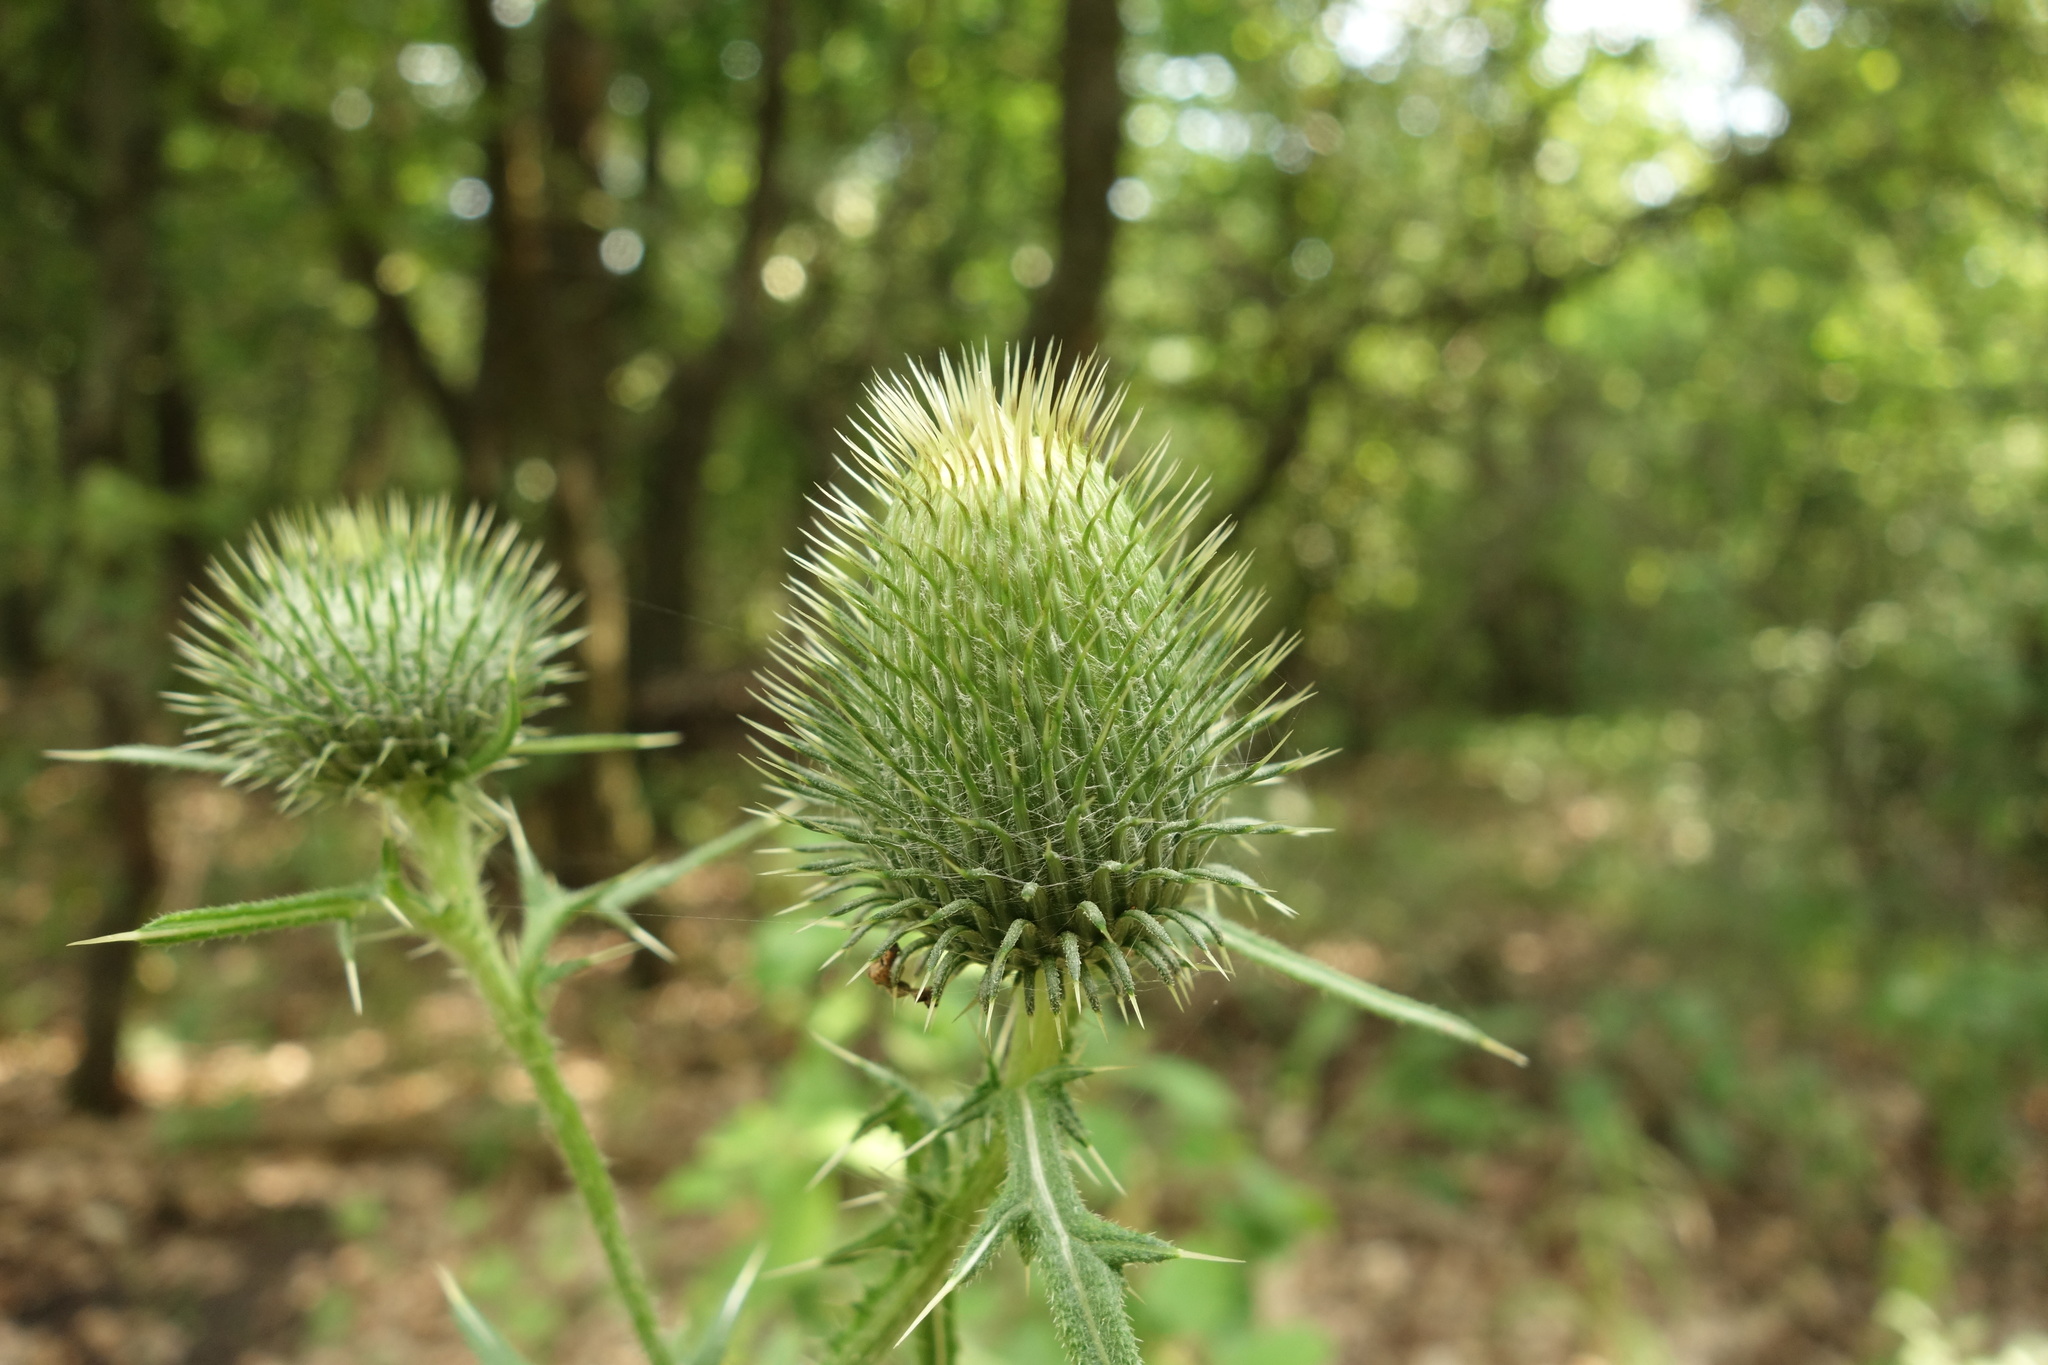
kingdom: Plantae
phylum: Tracheophyta
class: Magnoliopsida
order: Asterales
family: Asteraceae
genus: Cirsium
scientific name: Cirsium vulgare
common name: Bull thistle
